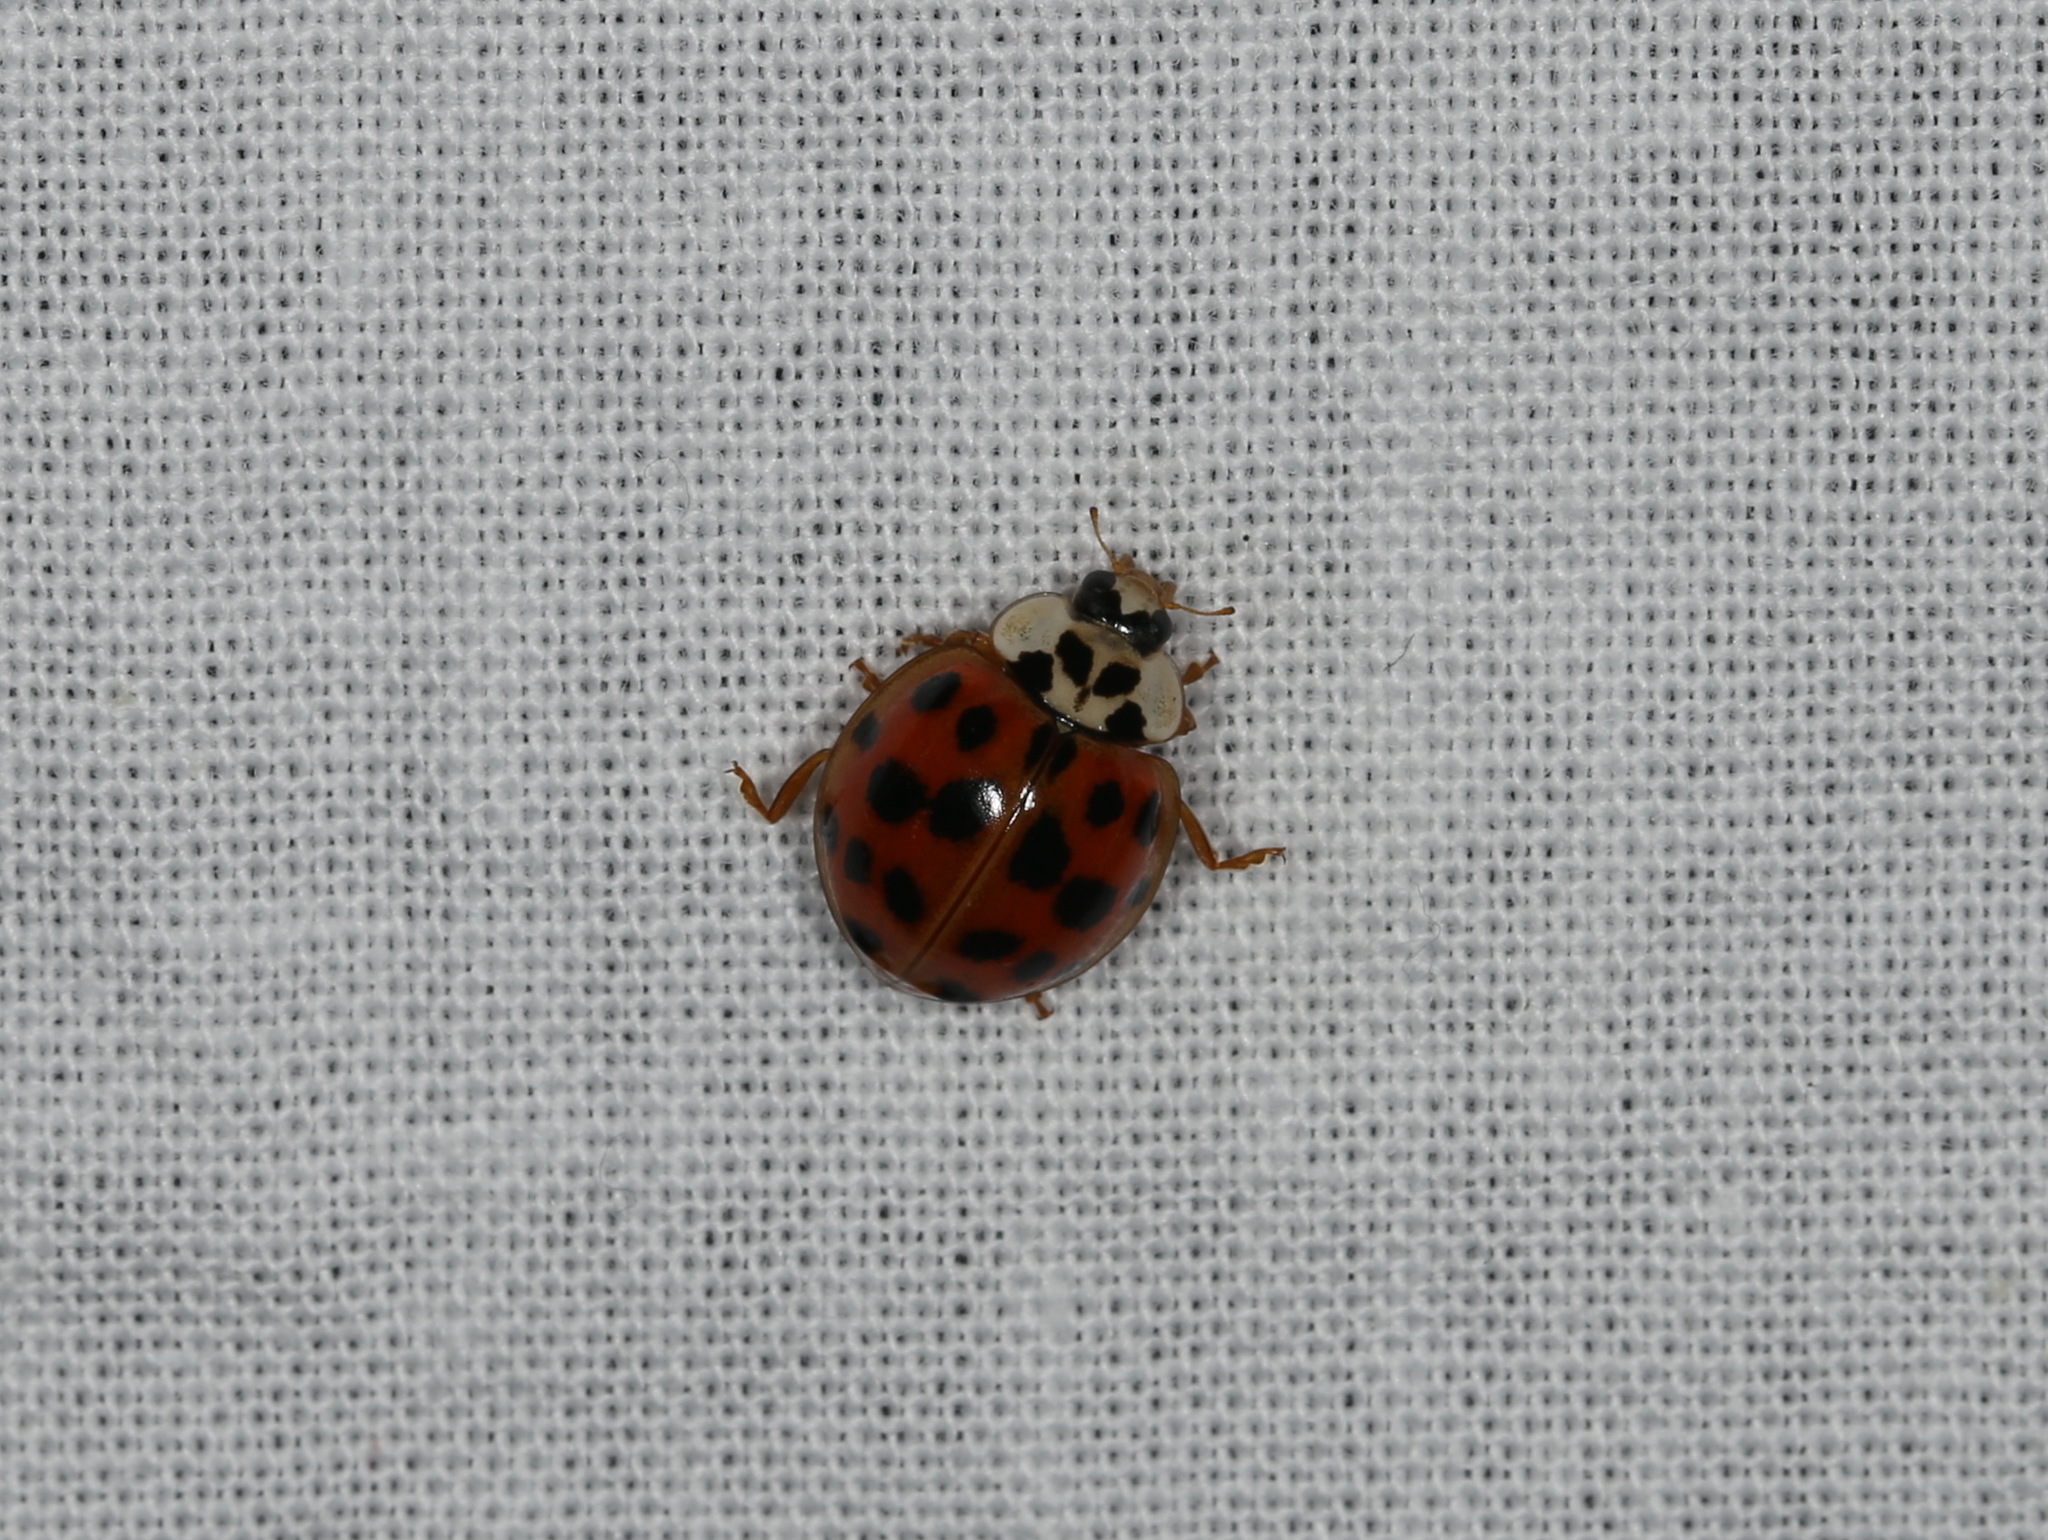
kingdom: Animalia
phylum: Arthropoda
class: Insecta
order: Coleoptera
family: Coccinellidae
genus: Harmonia
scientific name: Harmonia axyridis
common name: Harlequin ladybird
